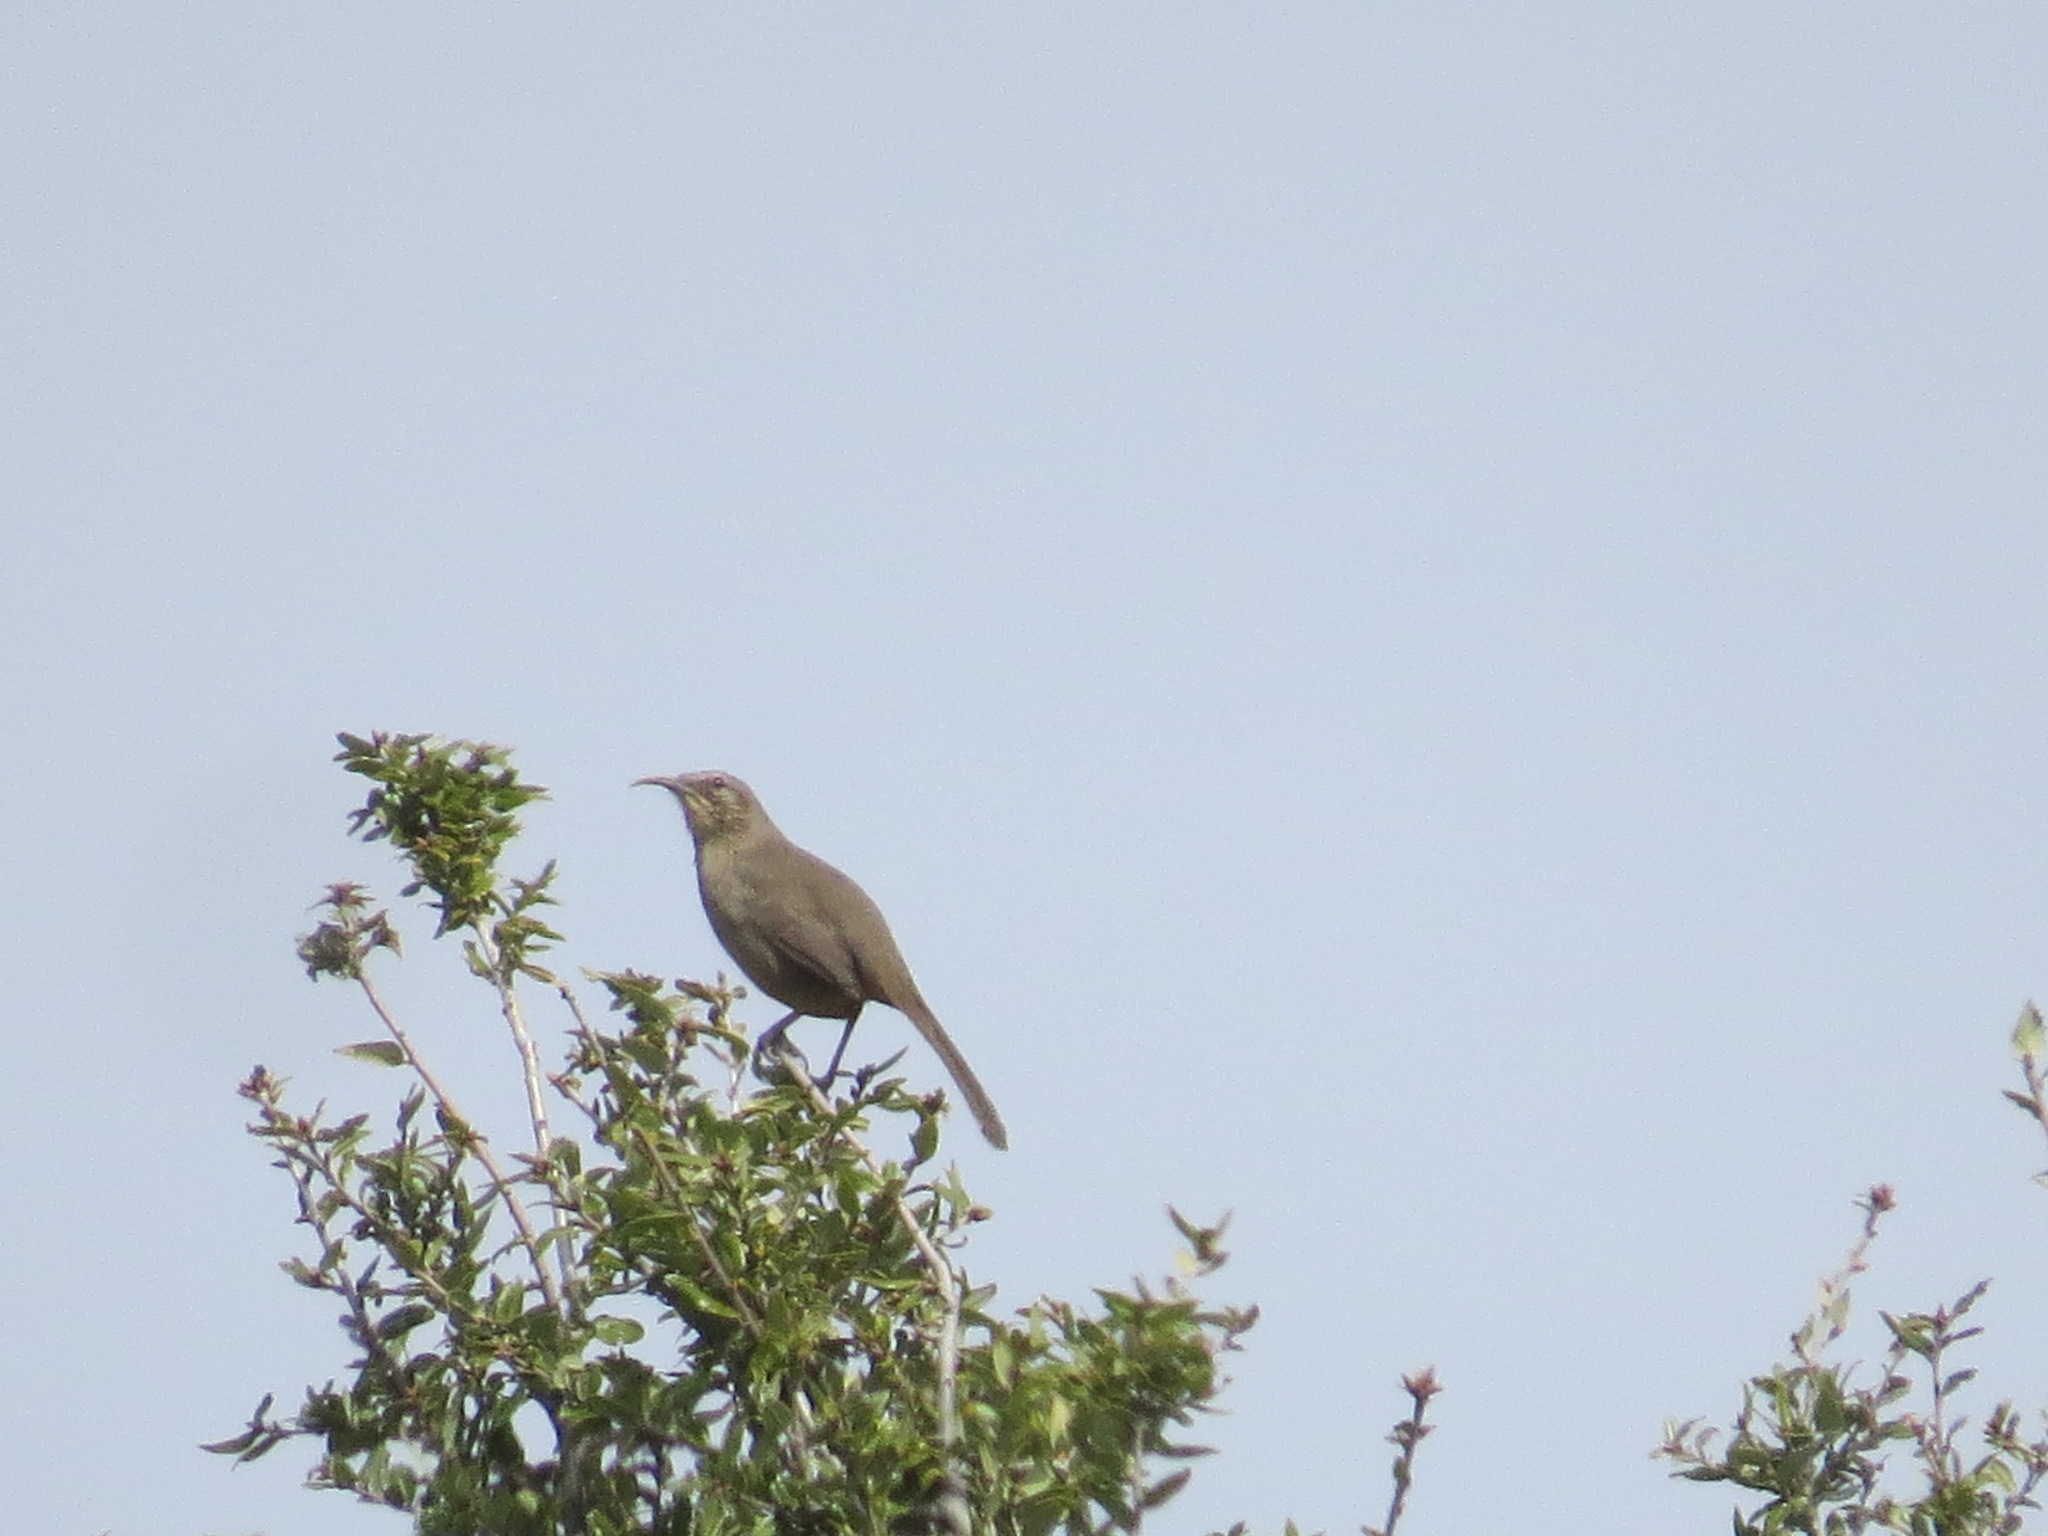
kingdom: Animalia
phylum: Chordata
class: Aves
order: Passeriformes
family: Mimidae
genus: Toxostoma
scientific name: Toxostoma redivivum
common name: California thrasher
